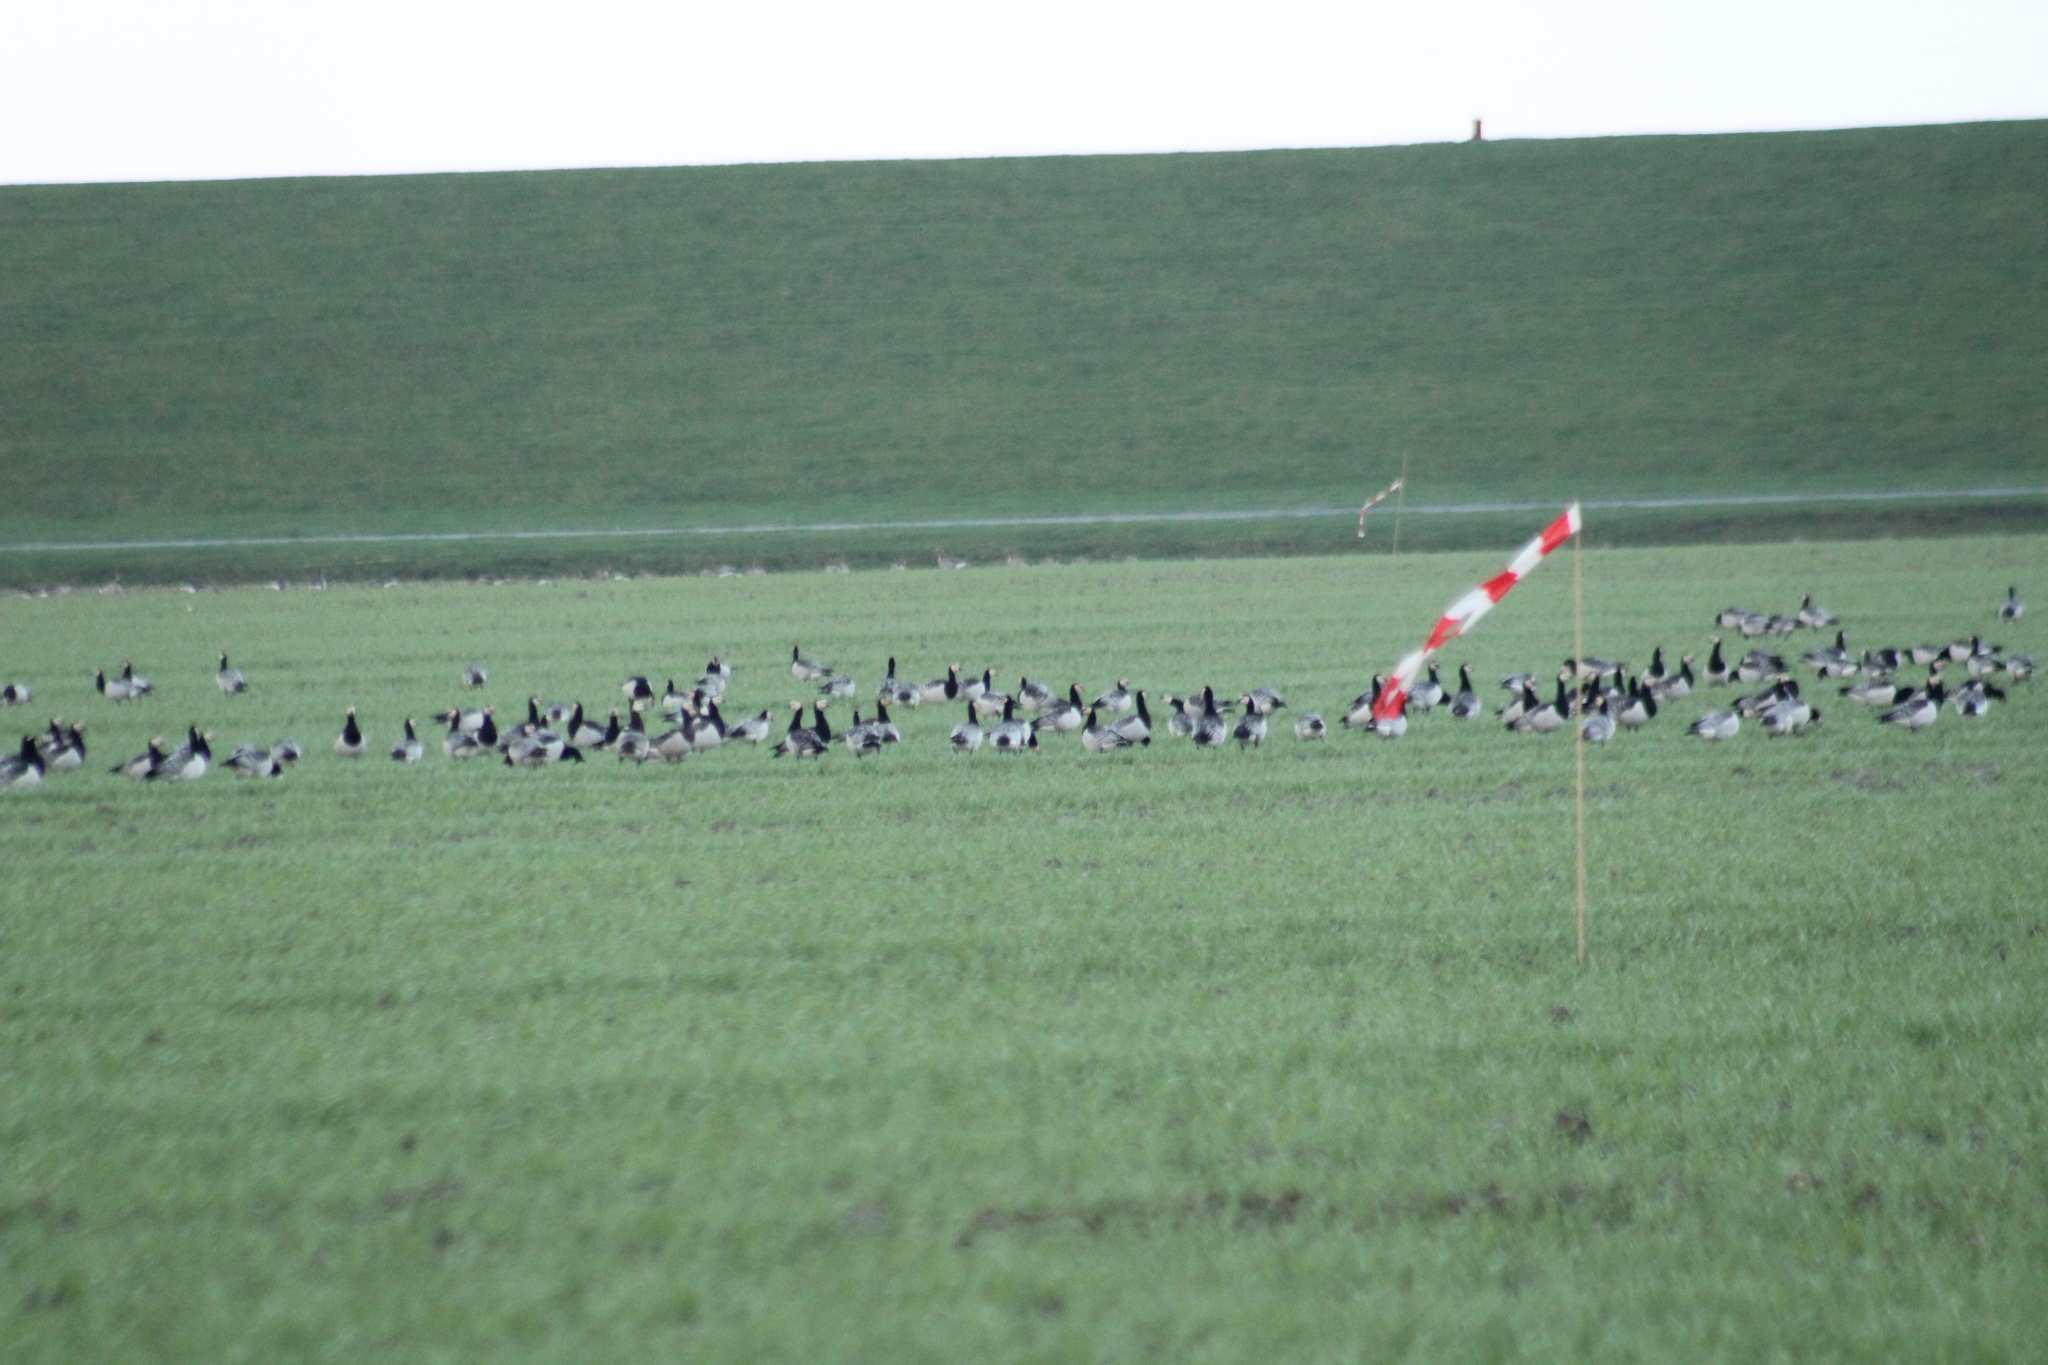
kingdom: Animalia
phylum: Chordata
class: Aves
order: Anseriformes
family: Anatidae
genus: Branta
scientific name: Branta leucopsis
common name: Barnacle goose
